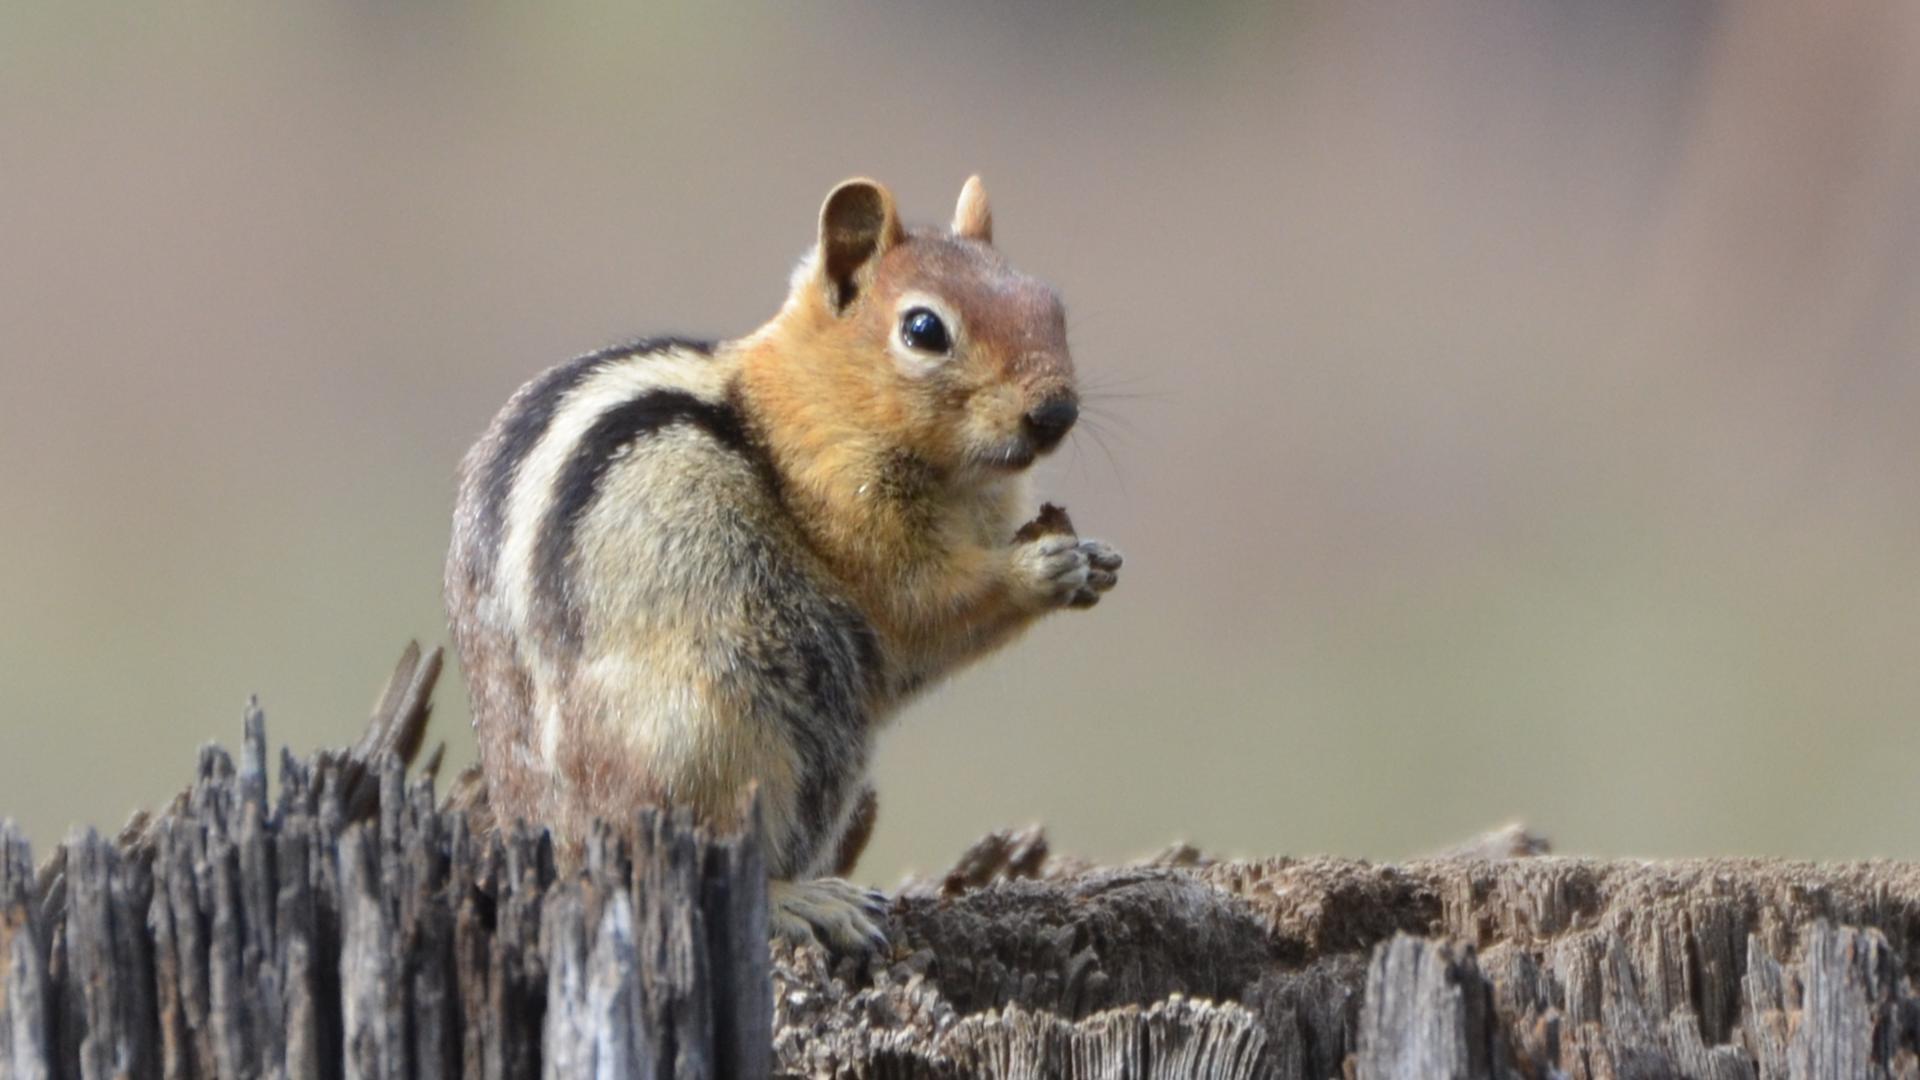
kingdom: Animalia
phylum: Chordata
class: Mammalia
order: Rodentia
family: Sciuridae
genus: Callospermophilus
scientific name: Callospermophilus lateralis
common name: Golden-mantled ground squirrel
